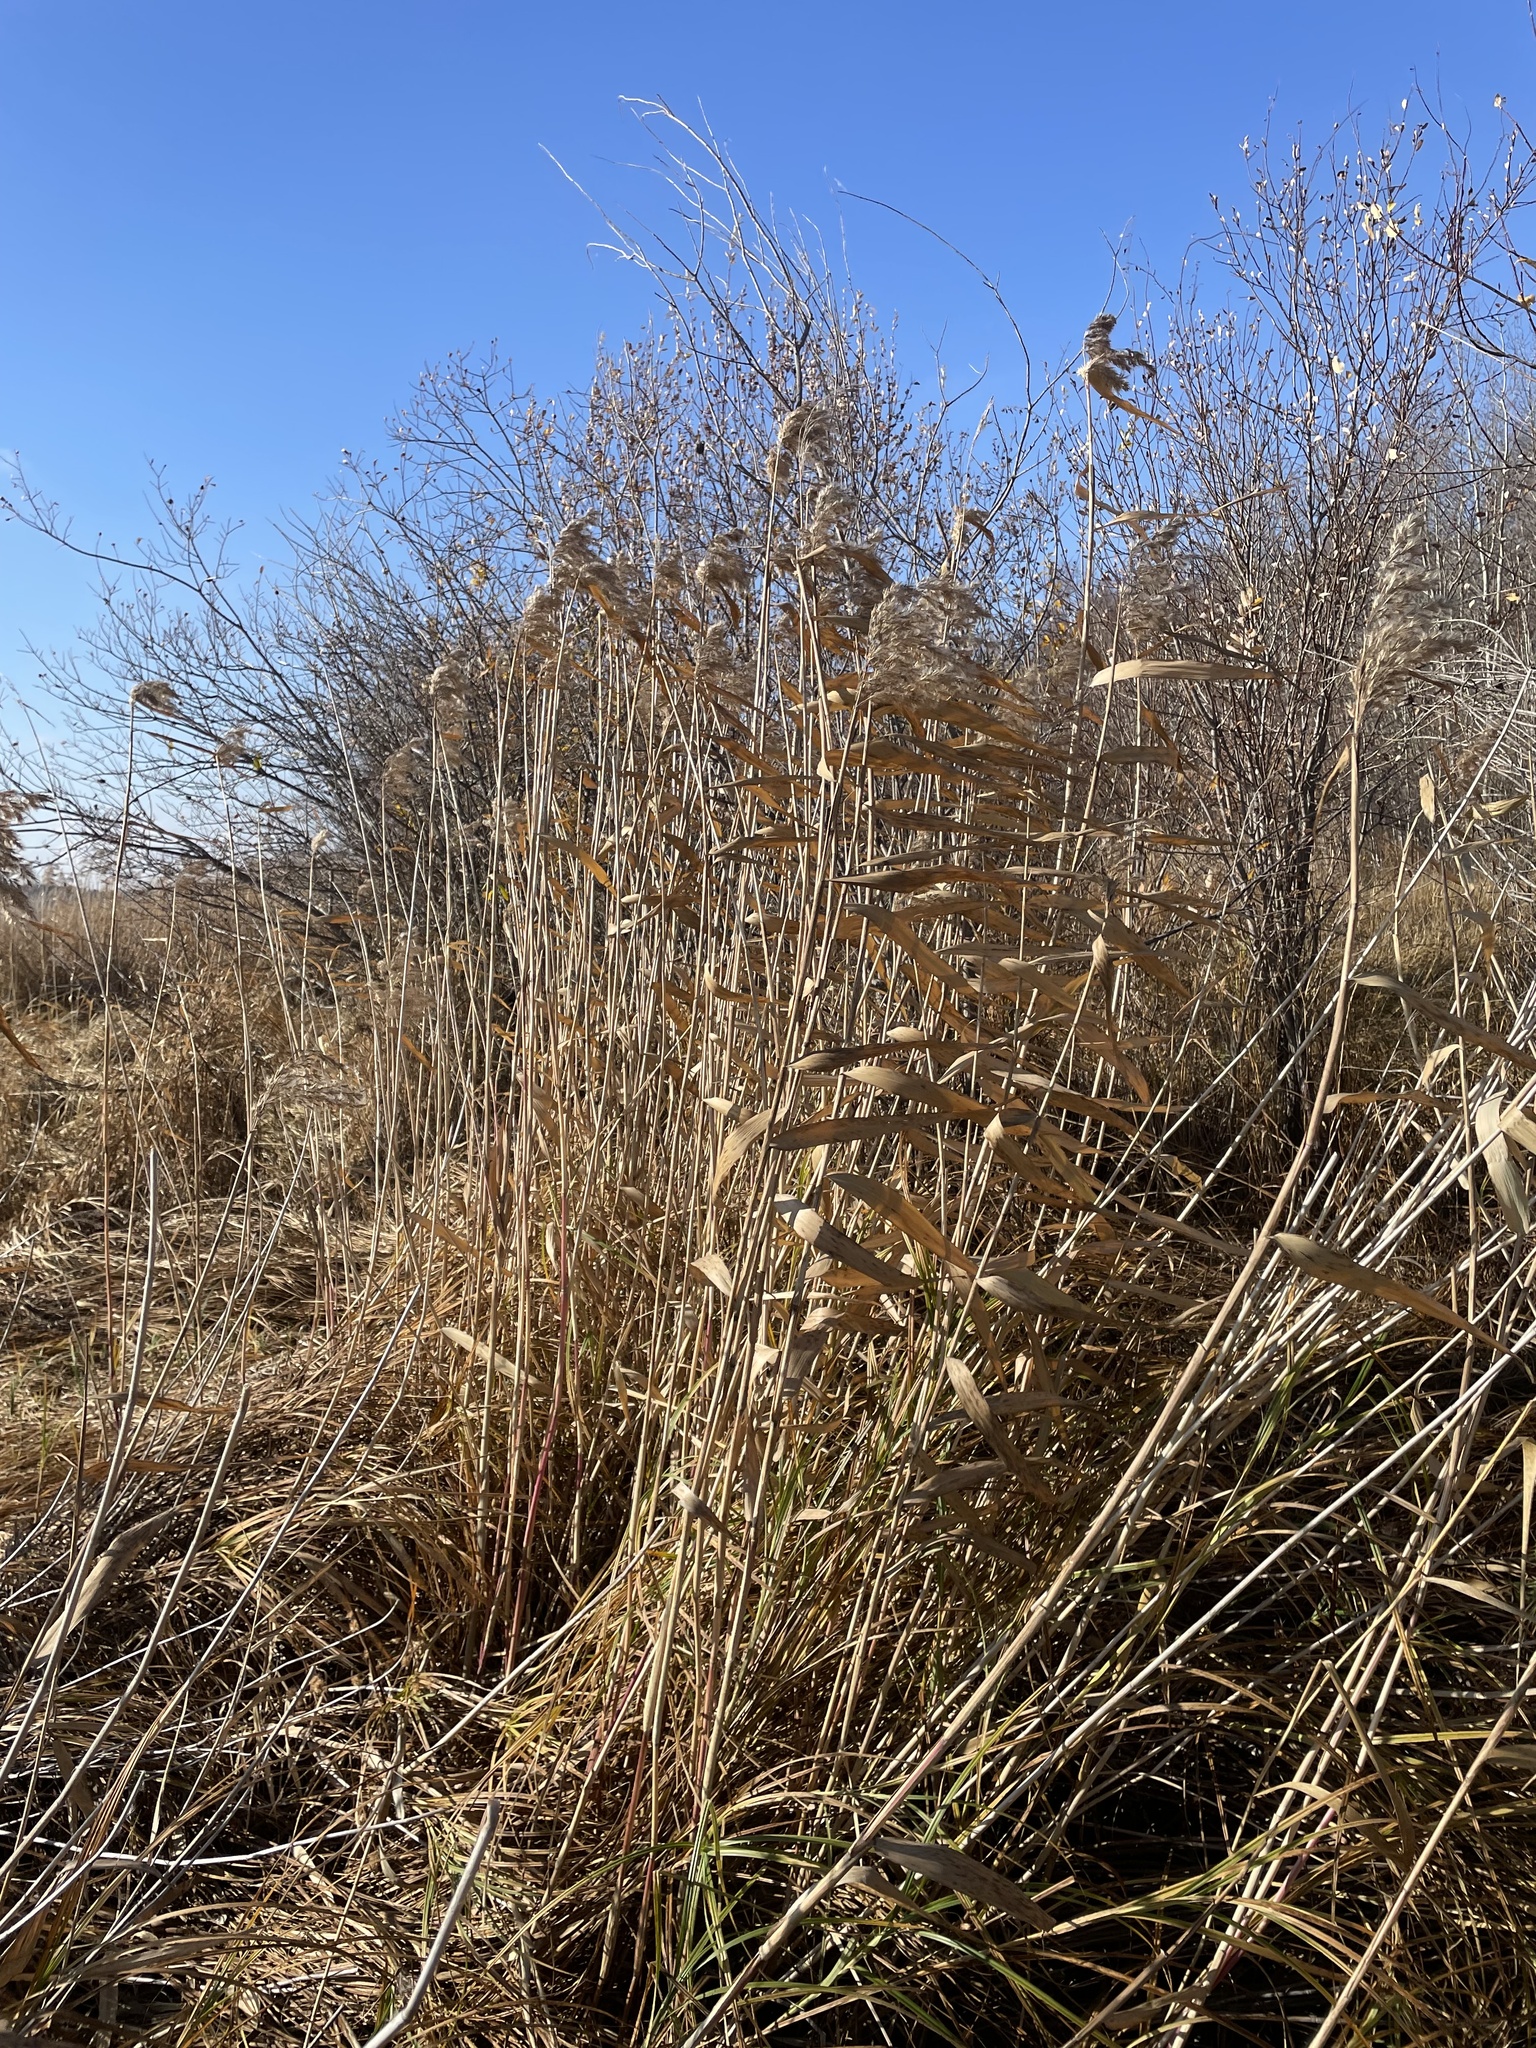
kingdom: Plantae
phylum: Tracheophyta
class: Liliopsida
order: Poales
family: Poaceae
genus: Phragmites
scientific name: Phragmites australis
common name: Common reed
